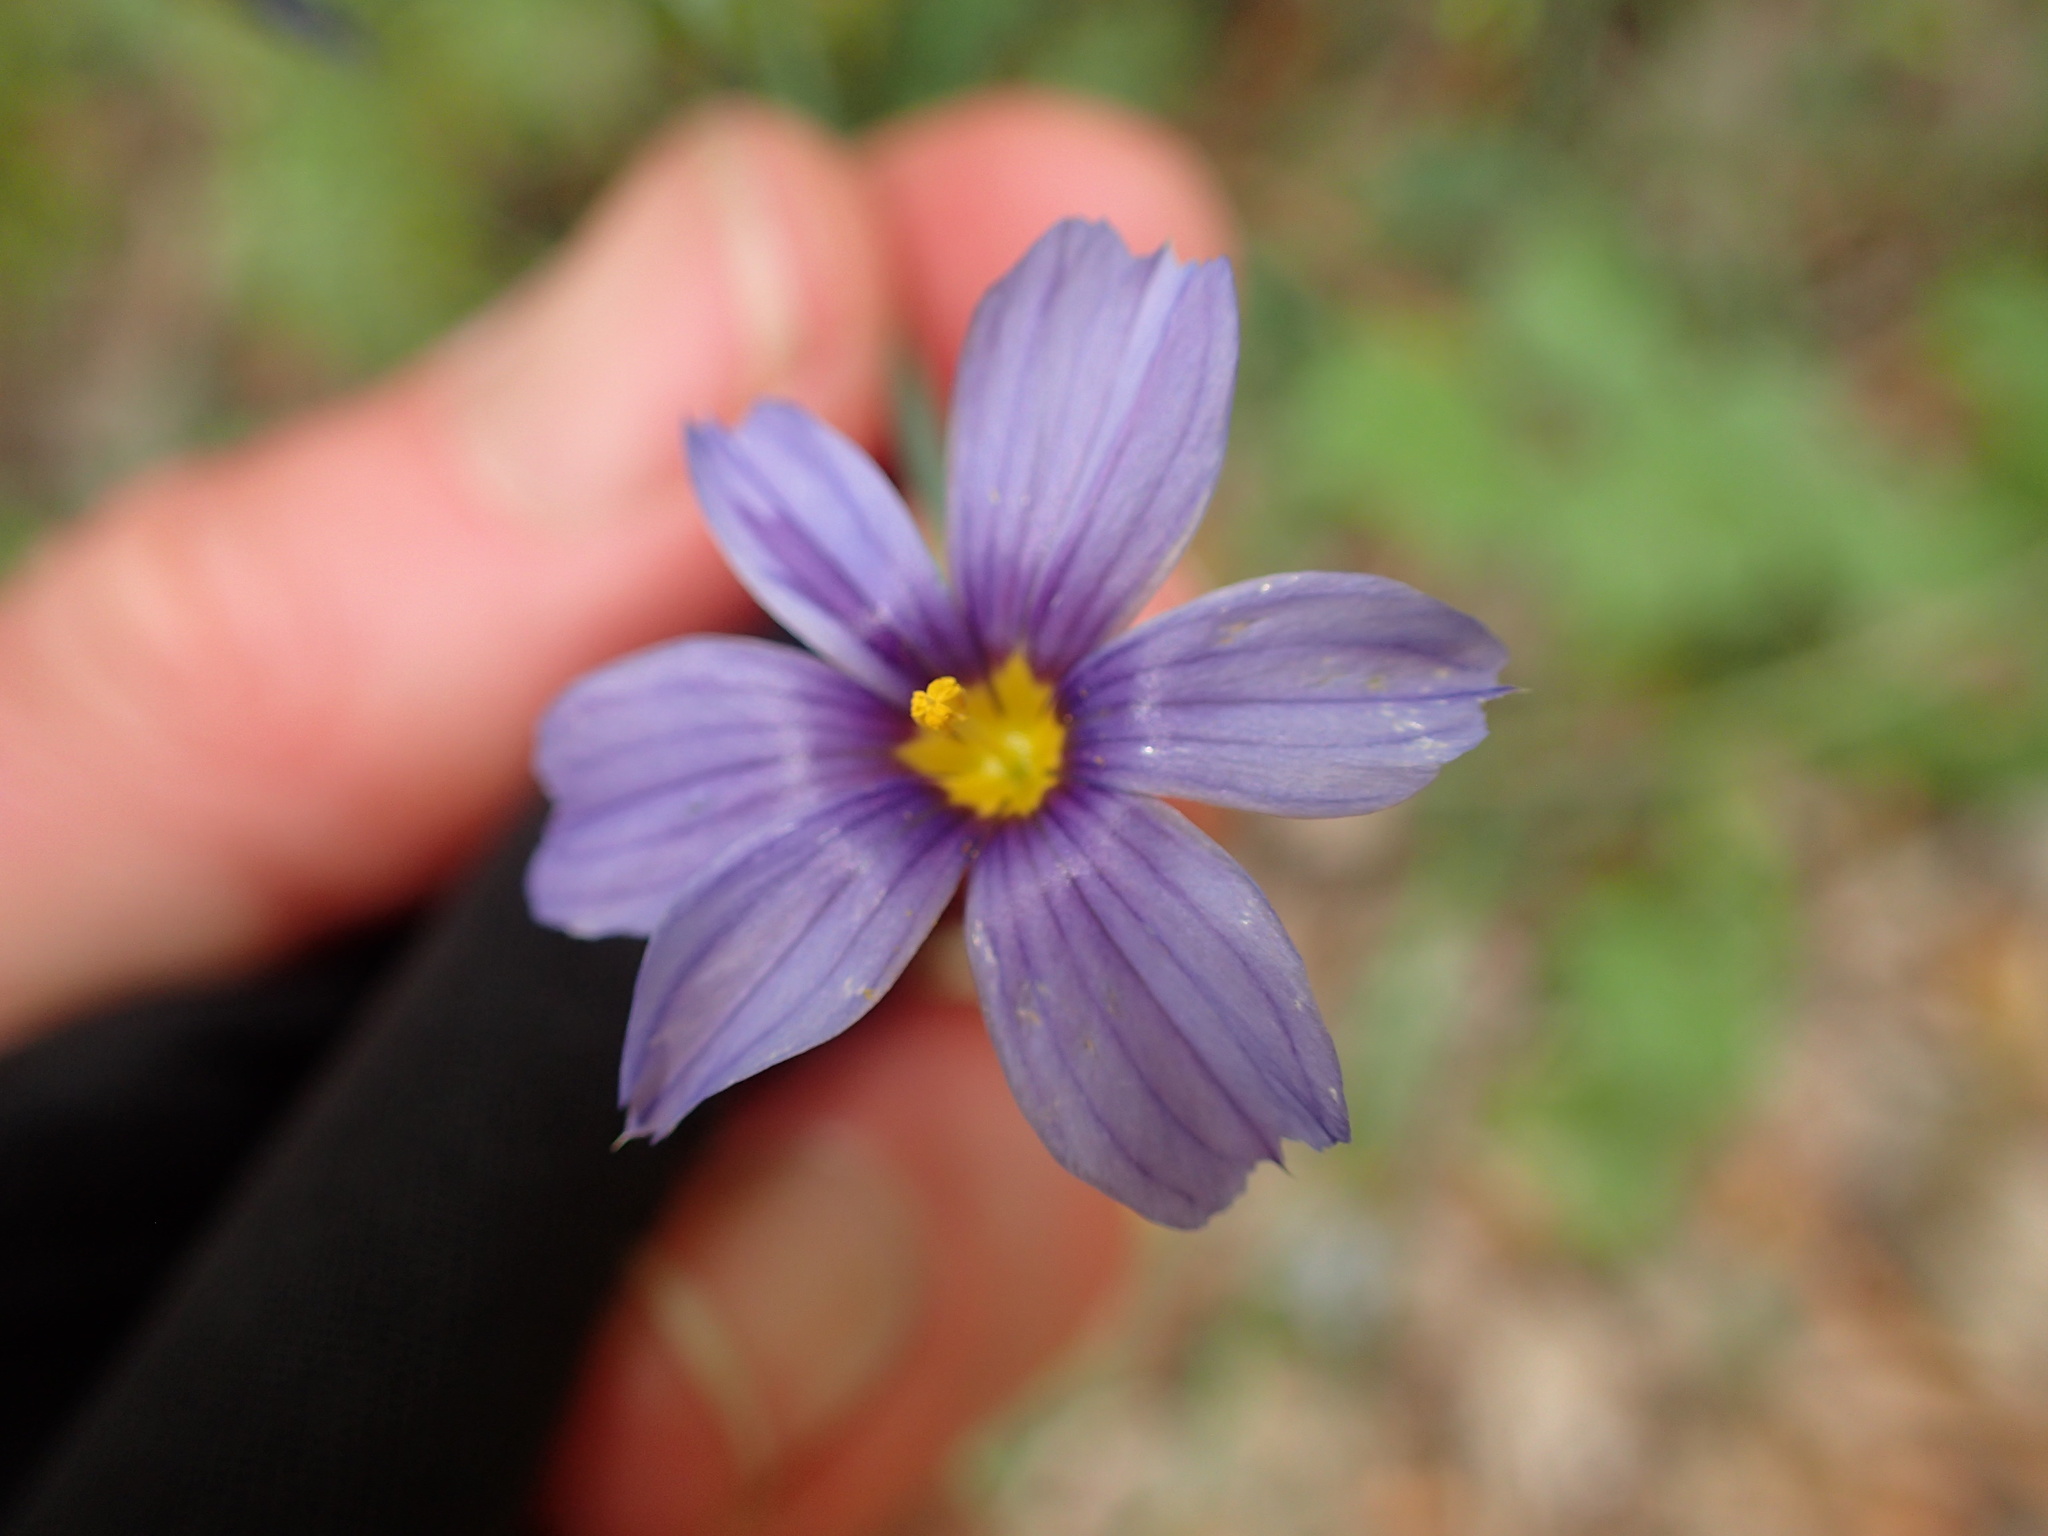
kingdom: Plantae
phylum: Tracheophyta
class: Liliopsida
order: Asparagales
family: Iridaceae
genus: Sisyrinchium
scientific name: Sisyrinchium bellum
